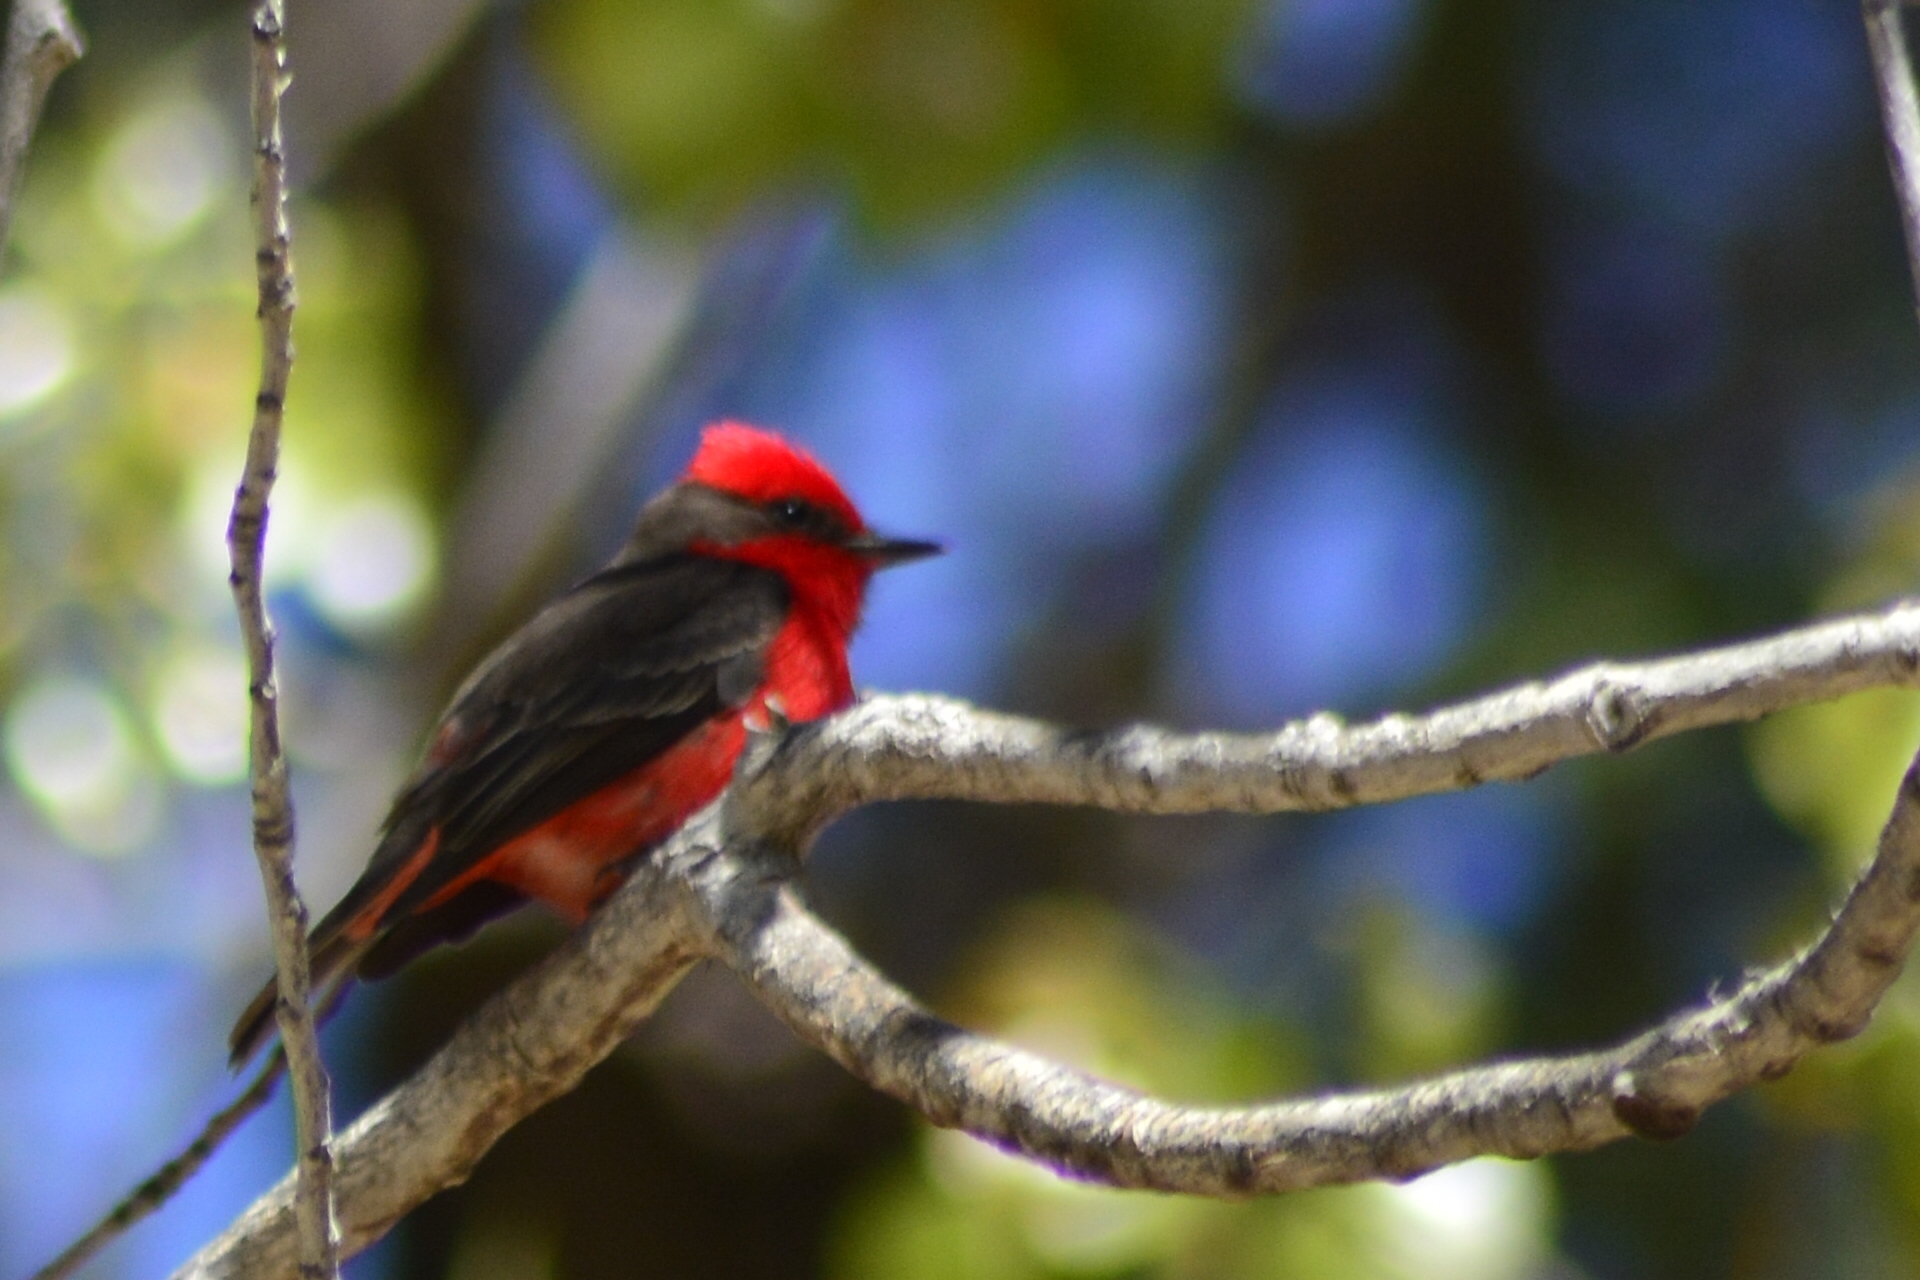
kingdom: Animalia
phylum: Chordata
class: Aves
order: Passeriformes
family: Tyrannidae
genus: Pyrocephalus
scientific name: Pyrocephalus rubinus
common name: Vermilion flycatcher
